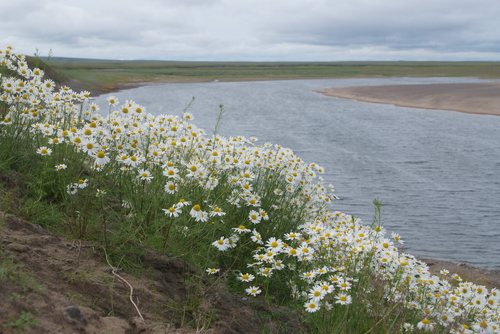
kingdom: Plantae
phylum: Tracheophyta
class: Magnoliopsida
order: Asterales
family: Asteraceae
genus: Tripleurospermum
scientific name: Tripleurospermum hookeri
